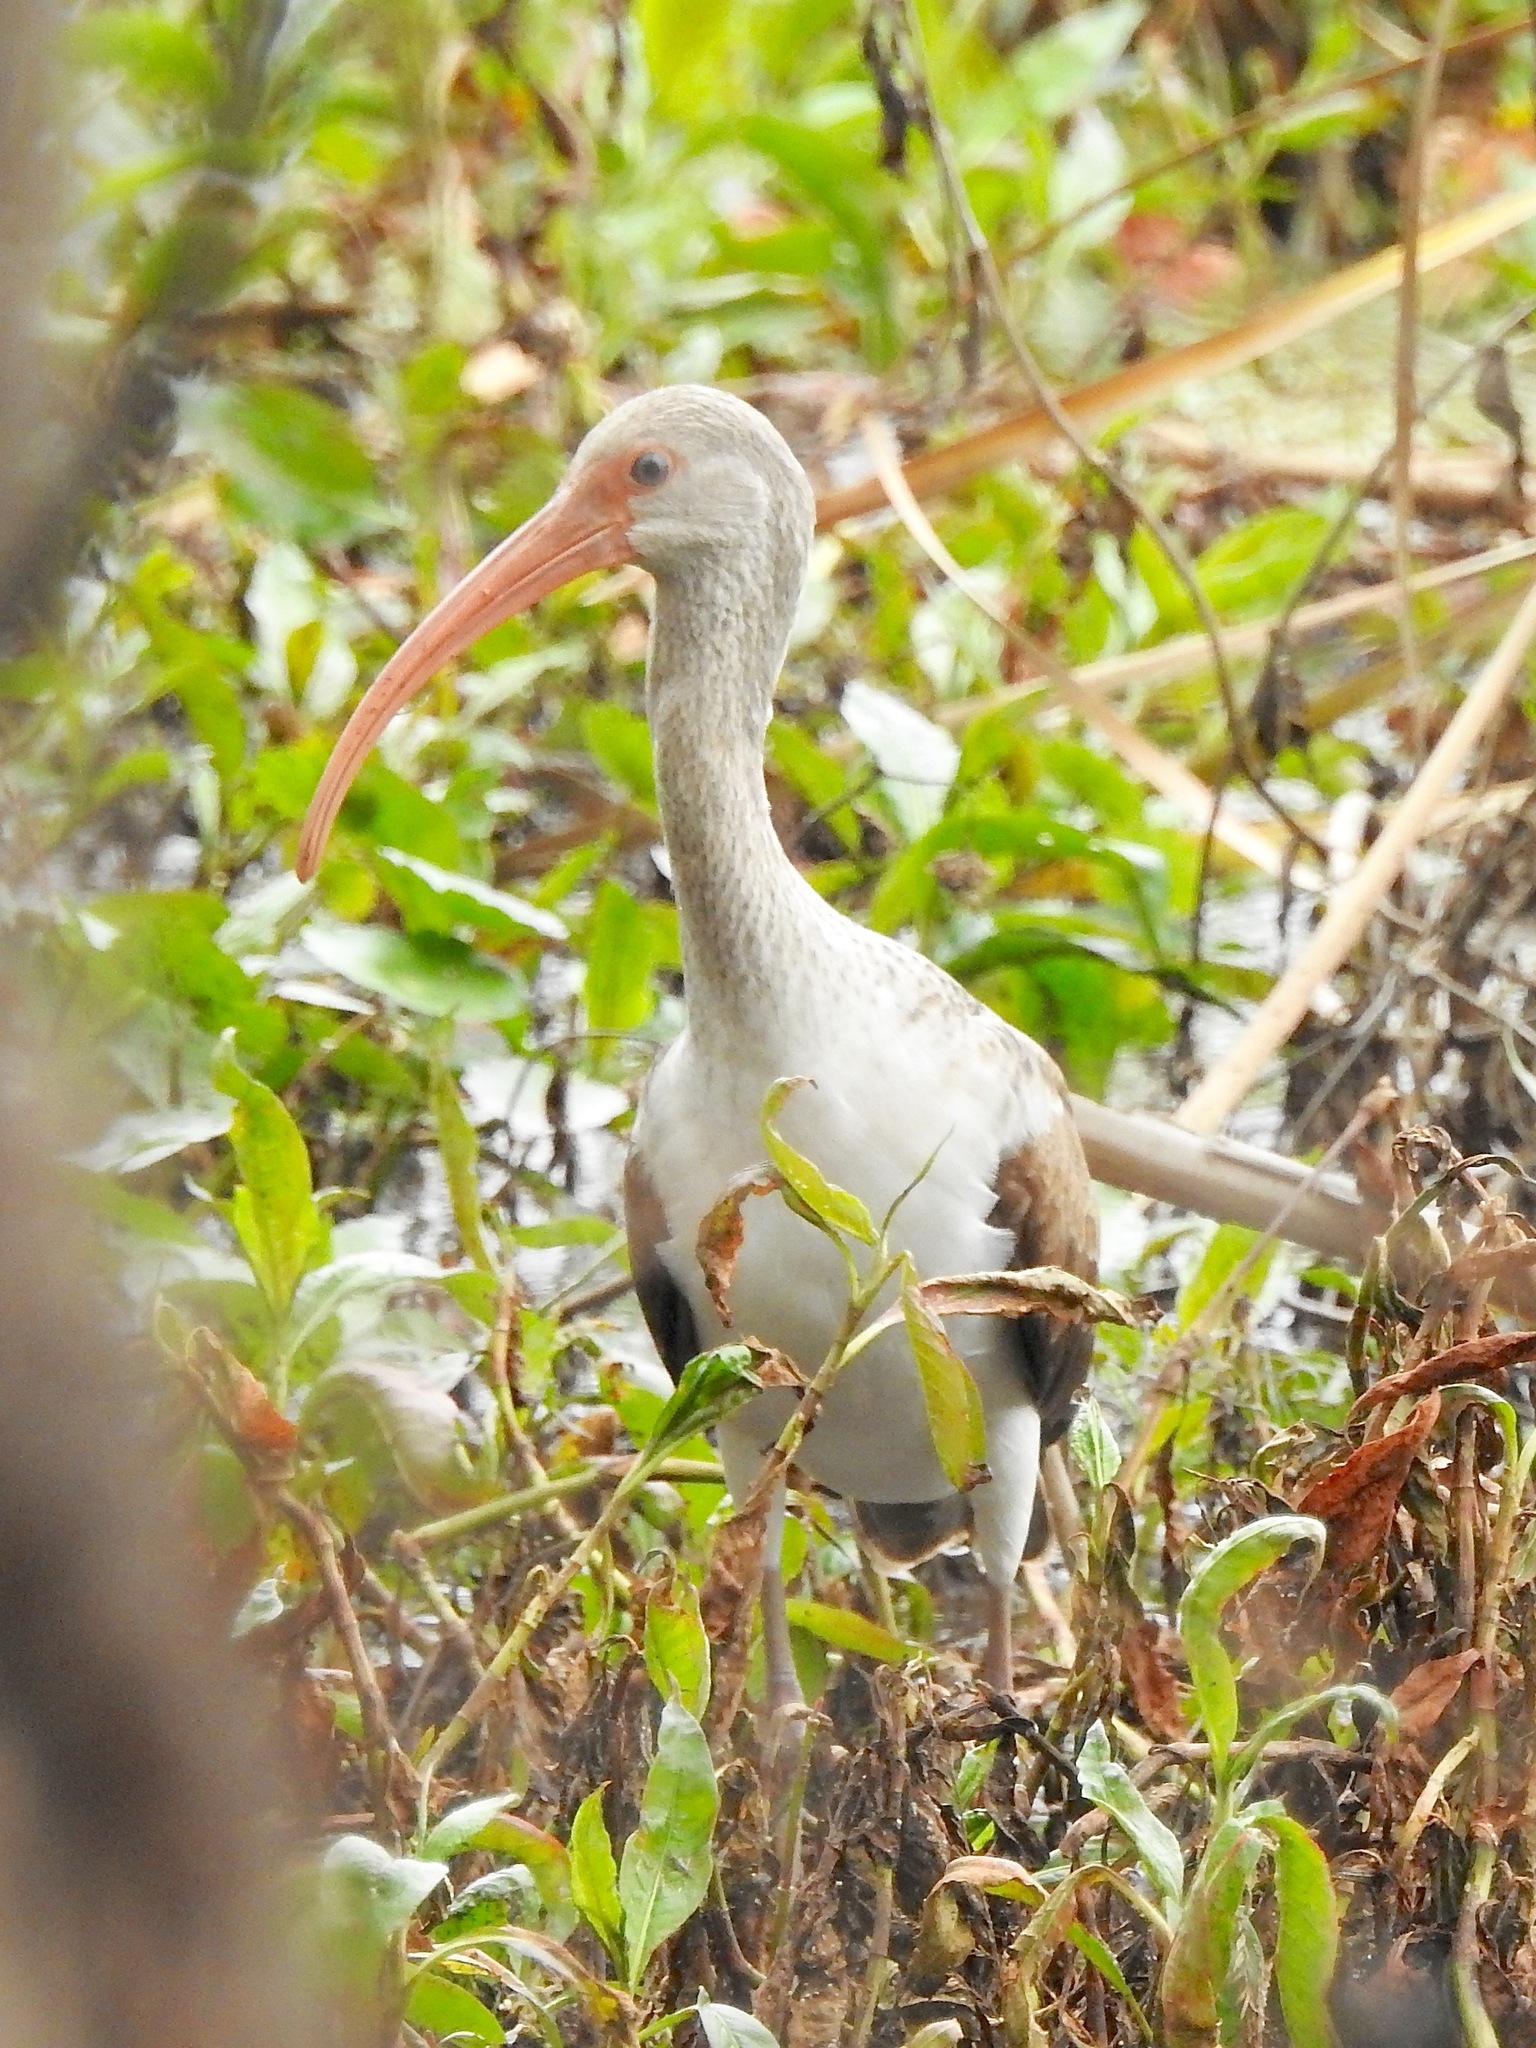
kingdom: Animalia
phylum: Chordata
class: Aves
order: Pelecaniformes
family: Threskiornithidae
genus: Eudocimus
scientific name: Eudocimus albus
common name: White ibis
